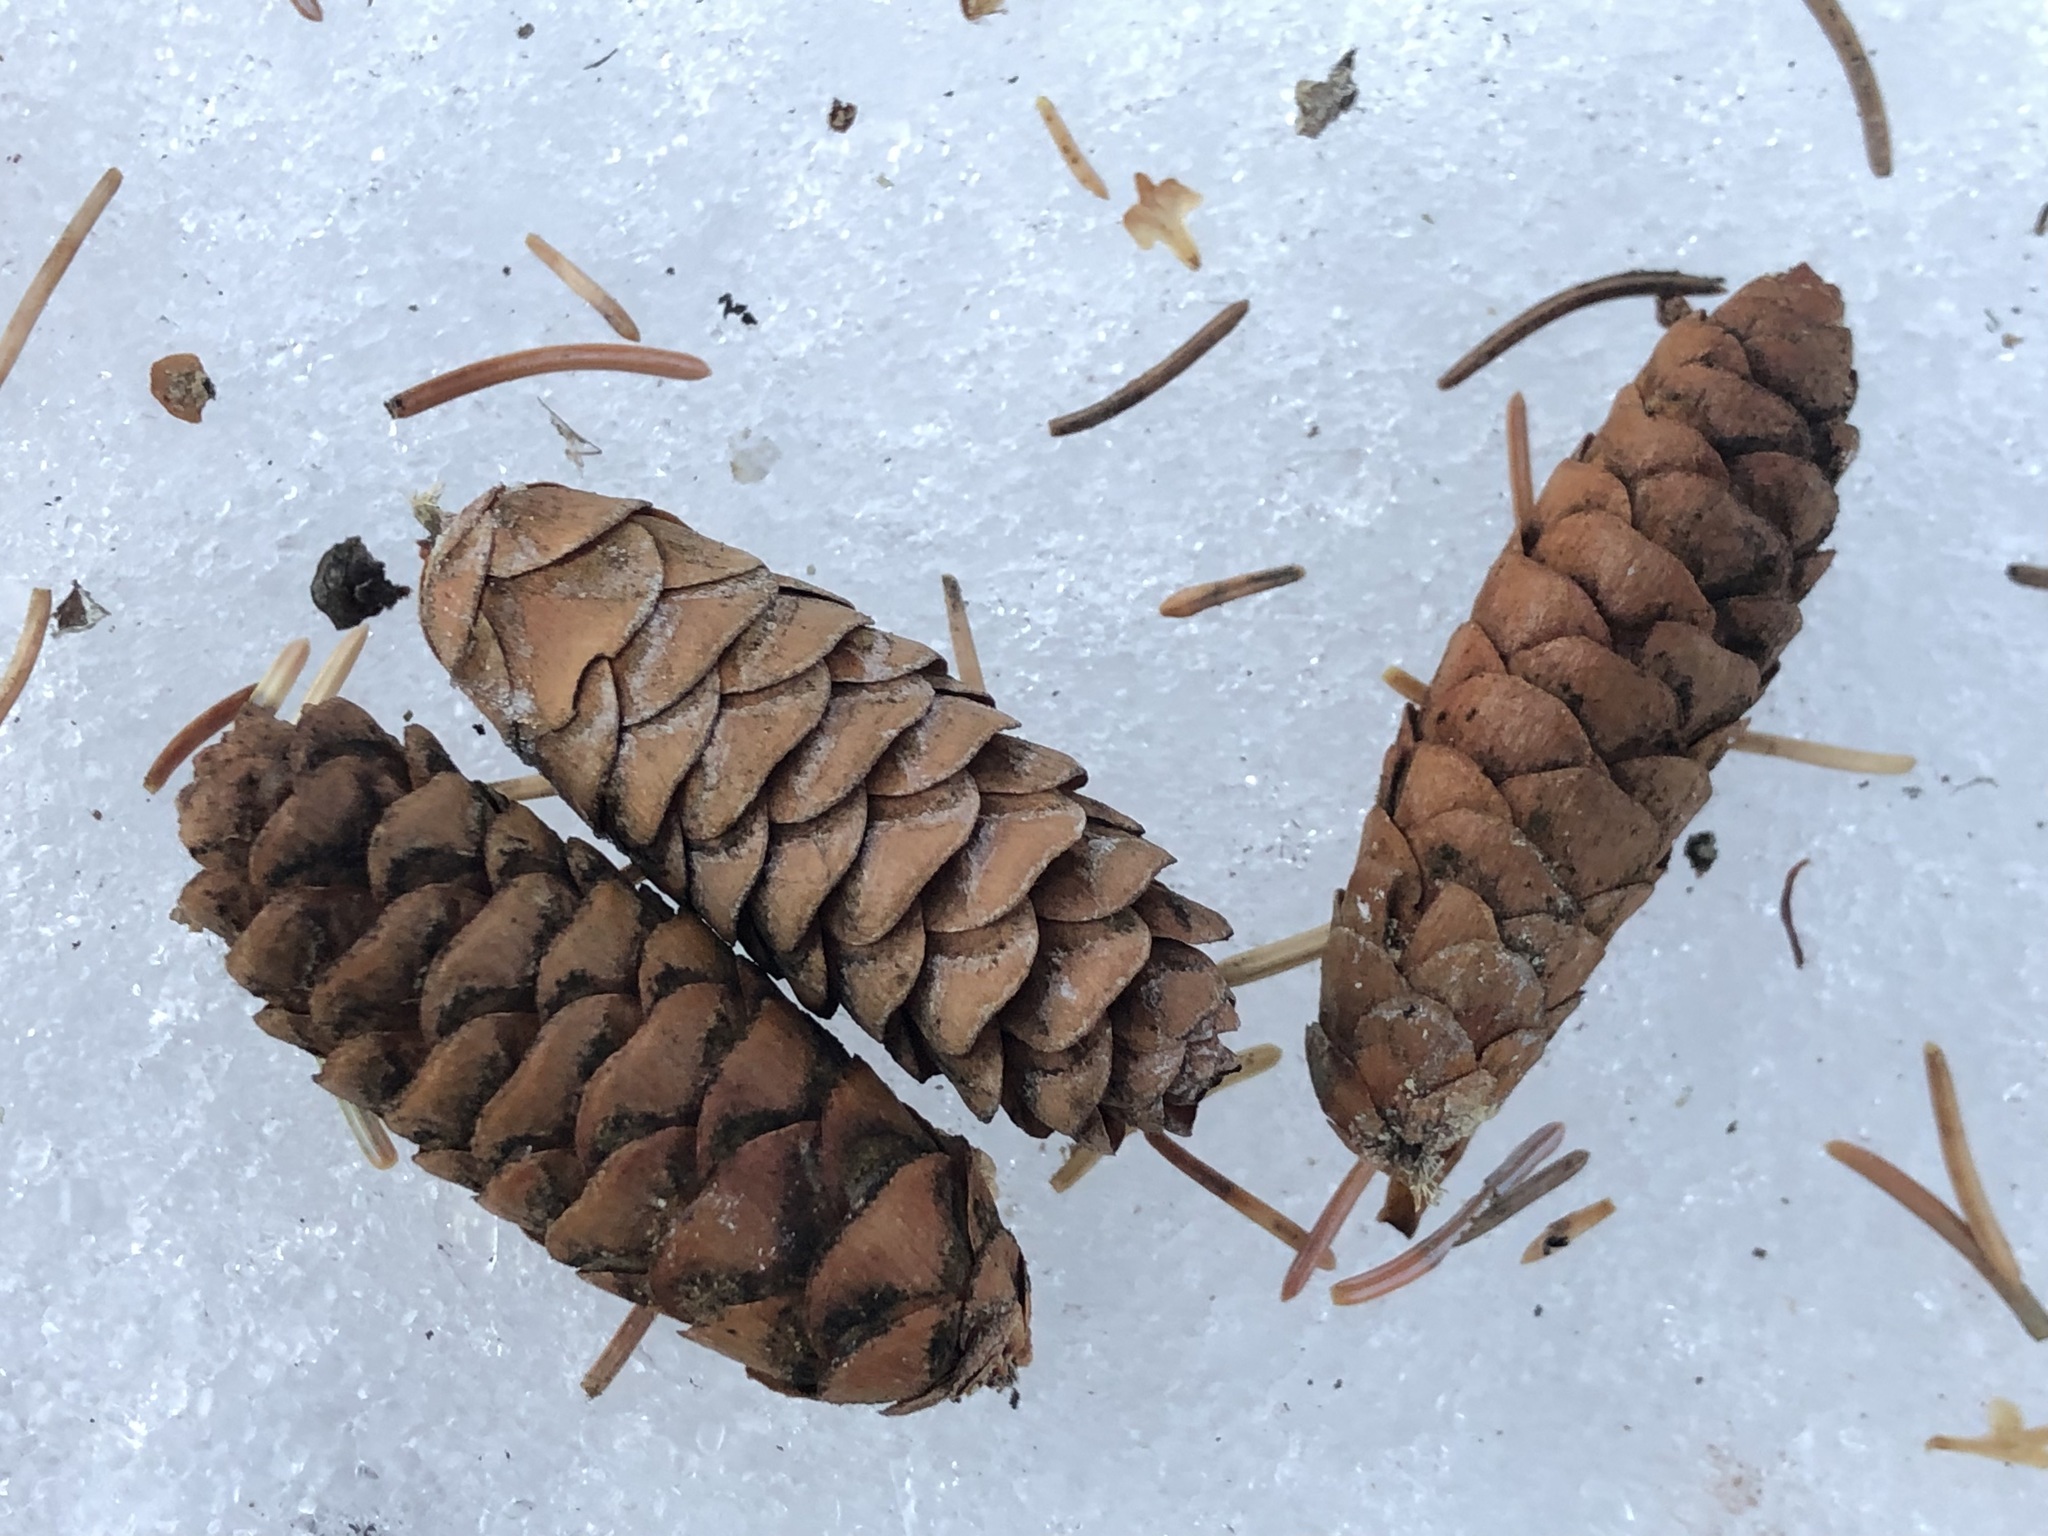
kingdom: Plantae
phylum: Tracheophyta
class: Pinopsida
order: Pinales
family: Pinaceae
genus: Picea
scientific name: Picea glauca
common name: White spruce
